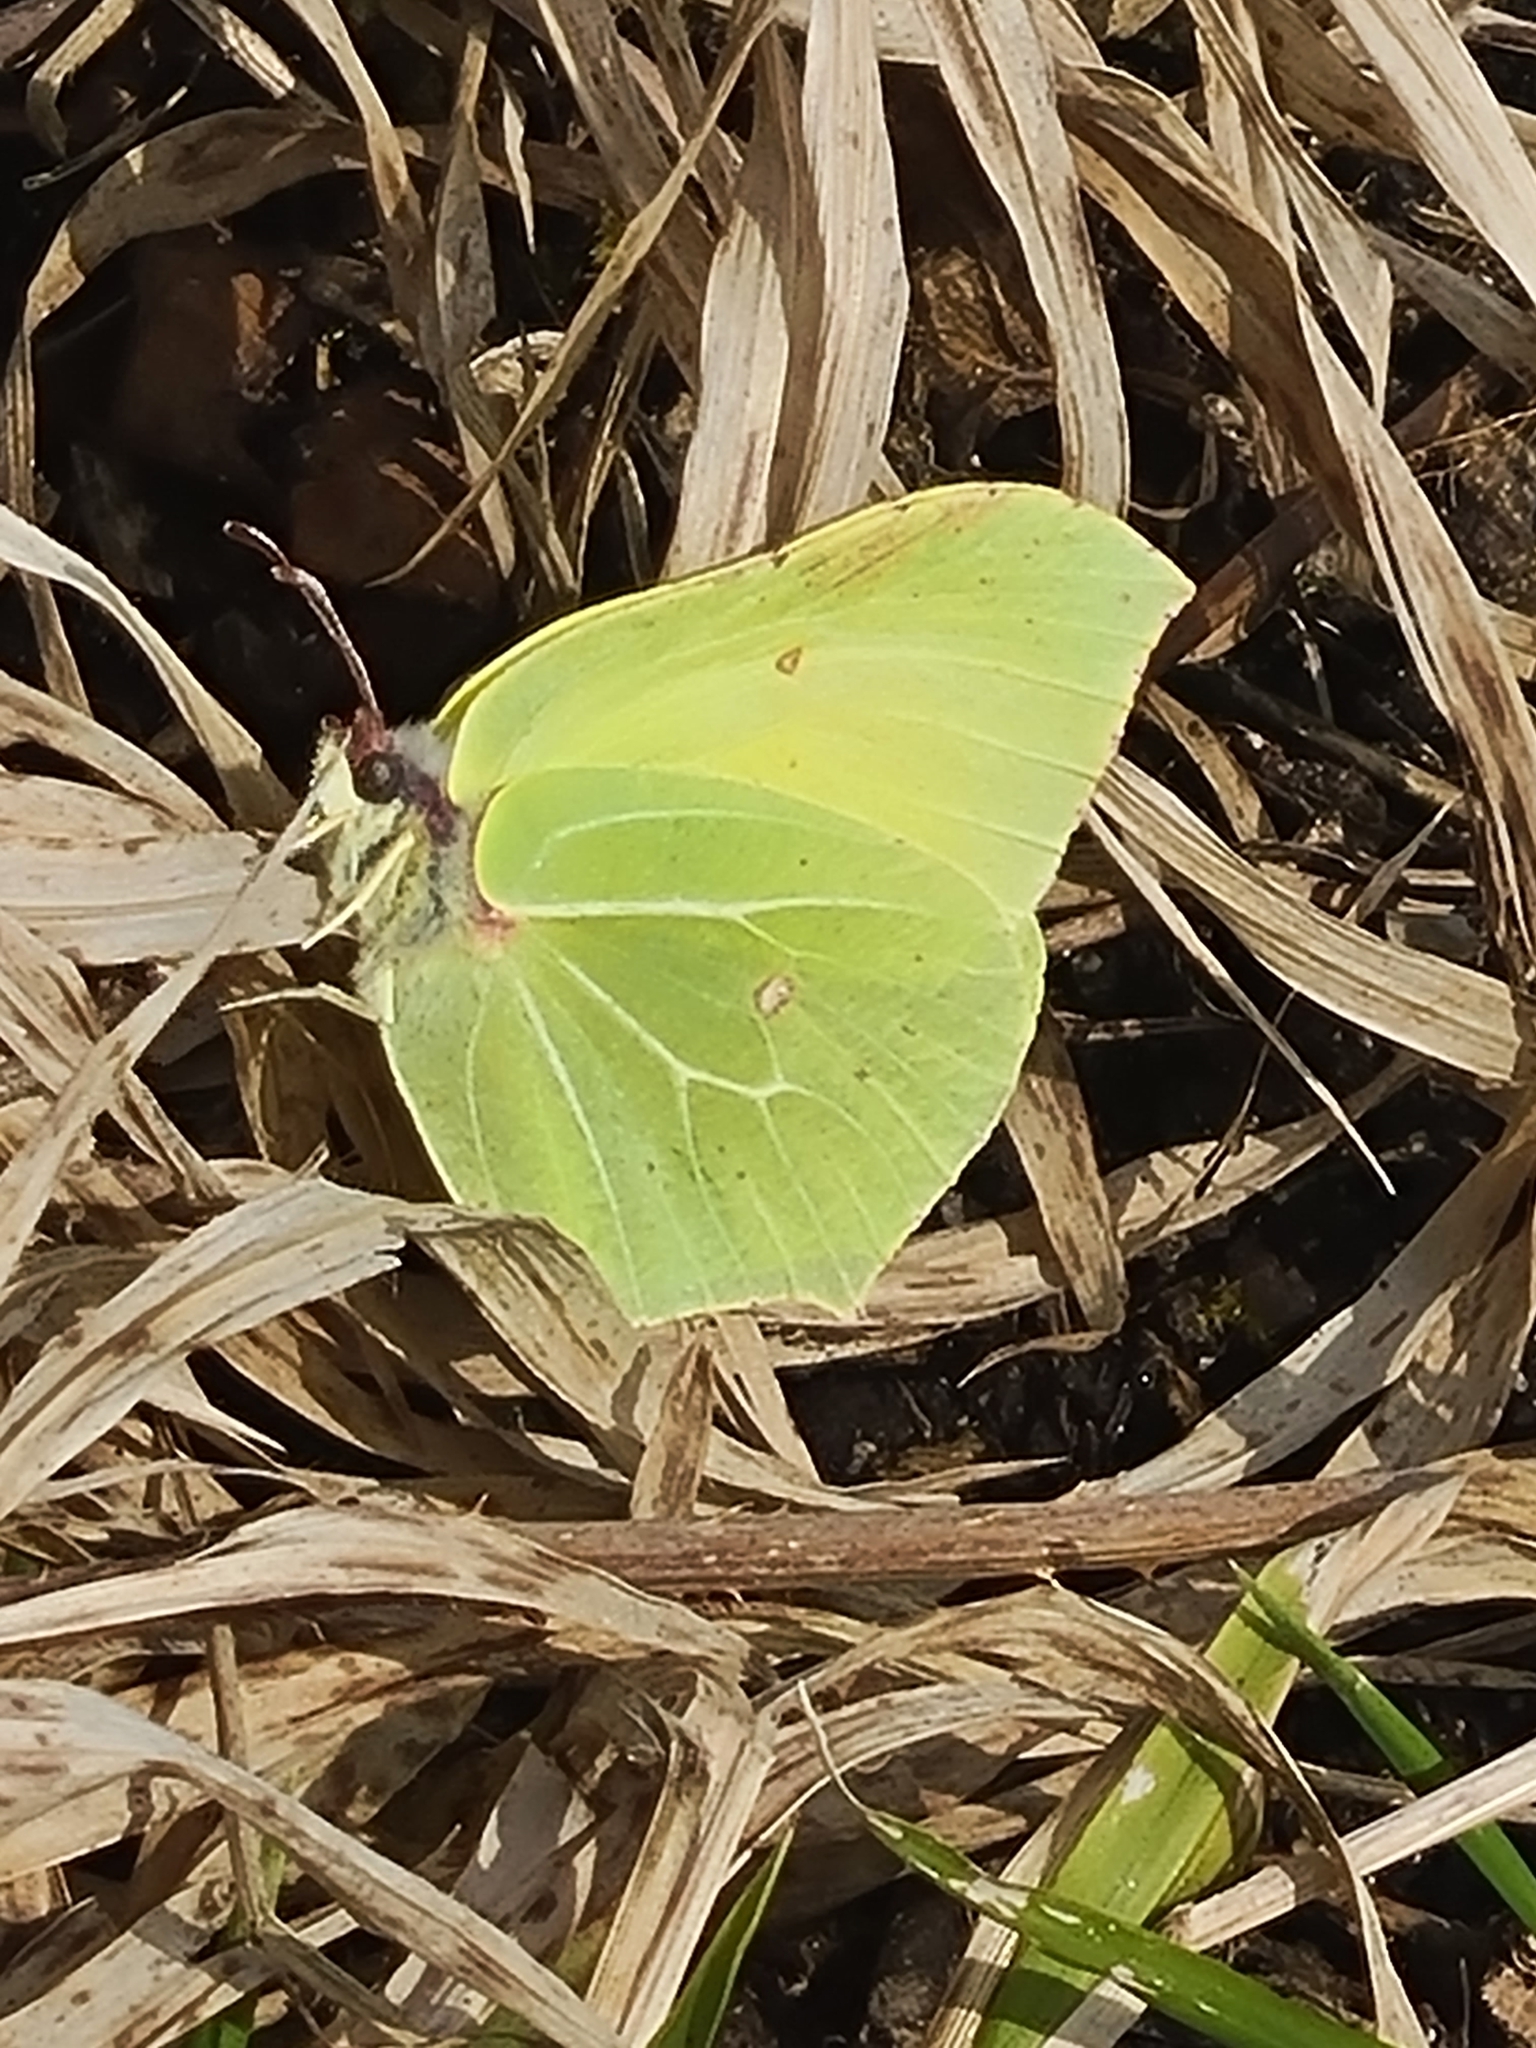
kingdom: Animalia
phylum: Arthropoda
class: Insecta
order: Lepidoptera
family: Pieridae
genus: Gonepteryx
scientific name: Gonepteryx rhamni
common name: Brimstone
